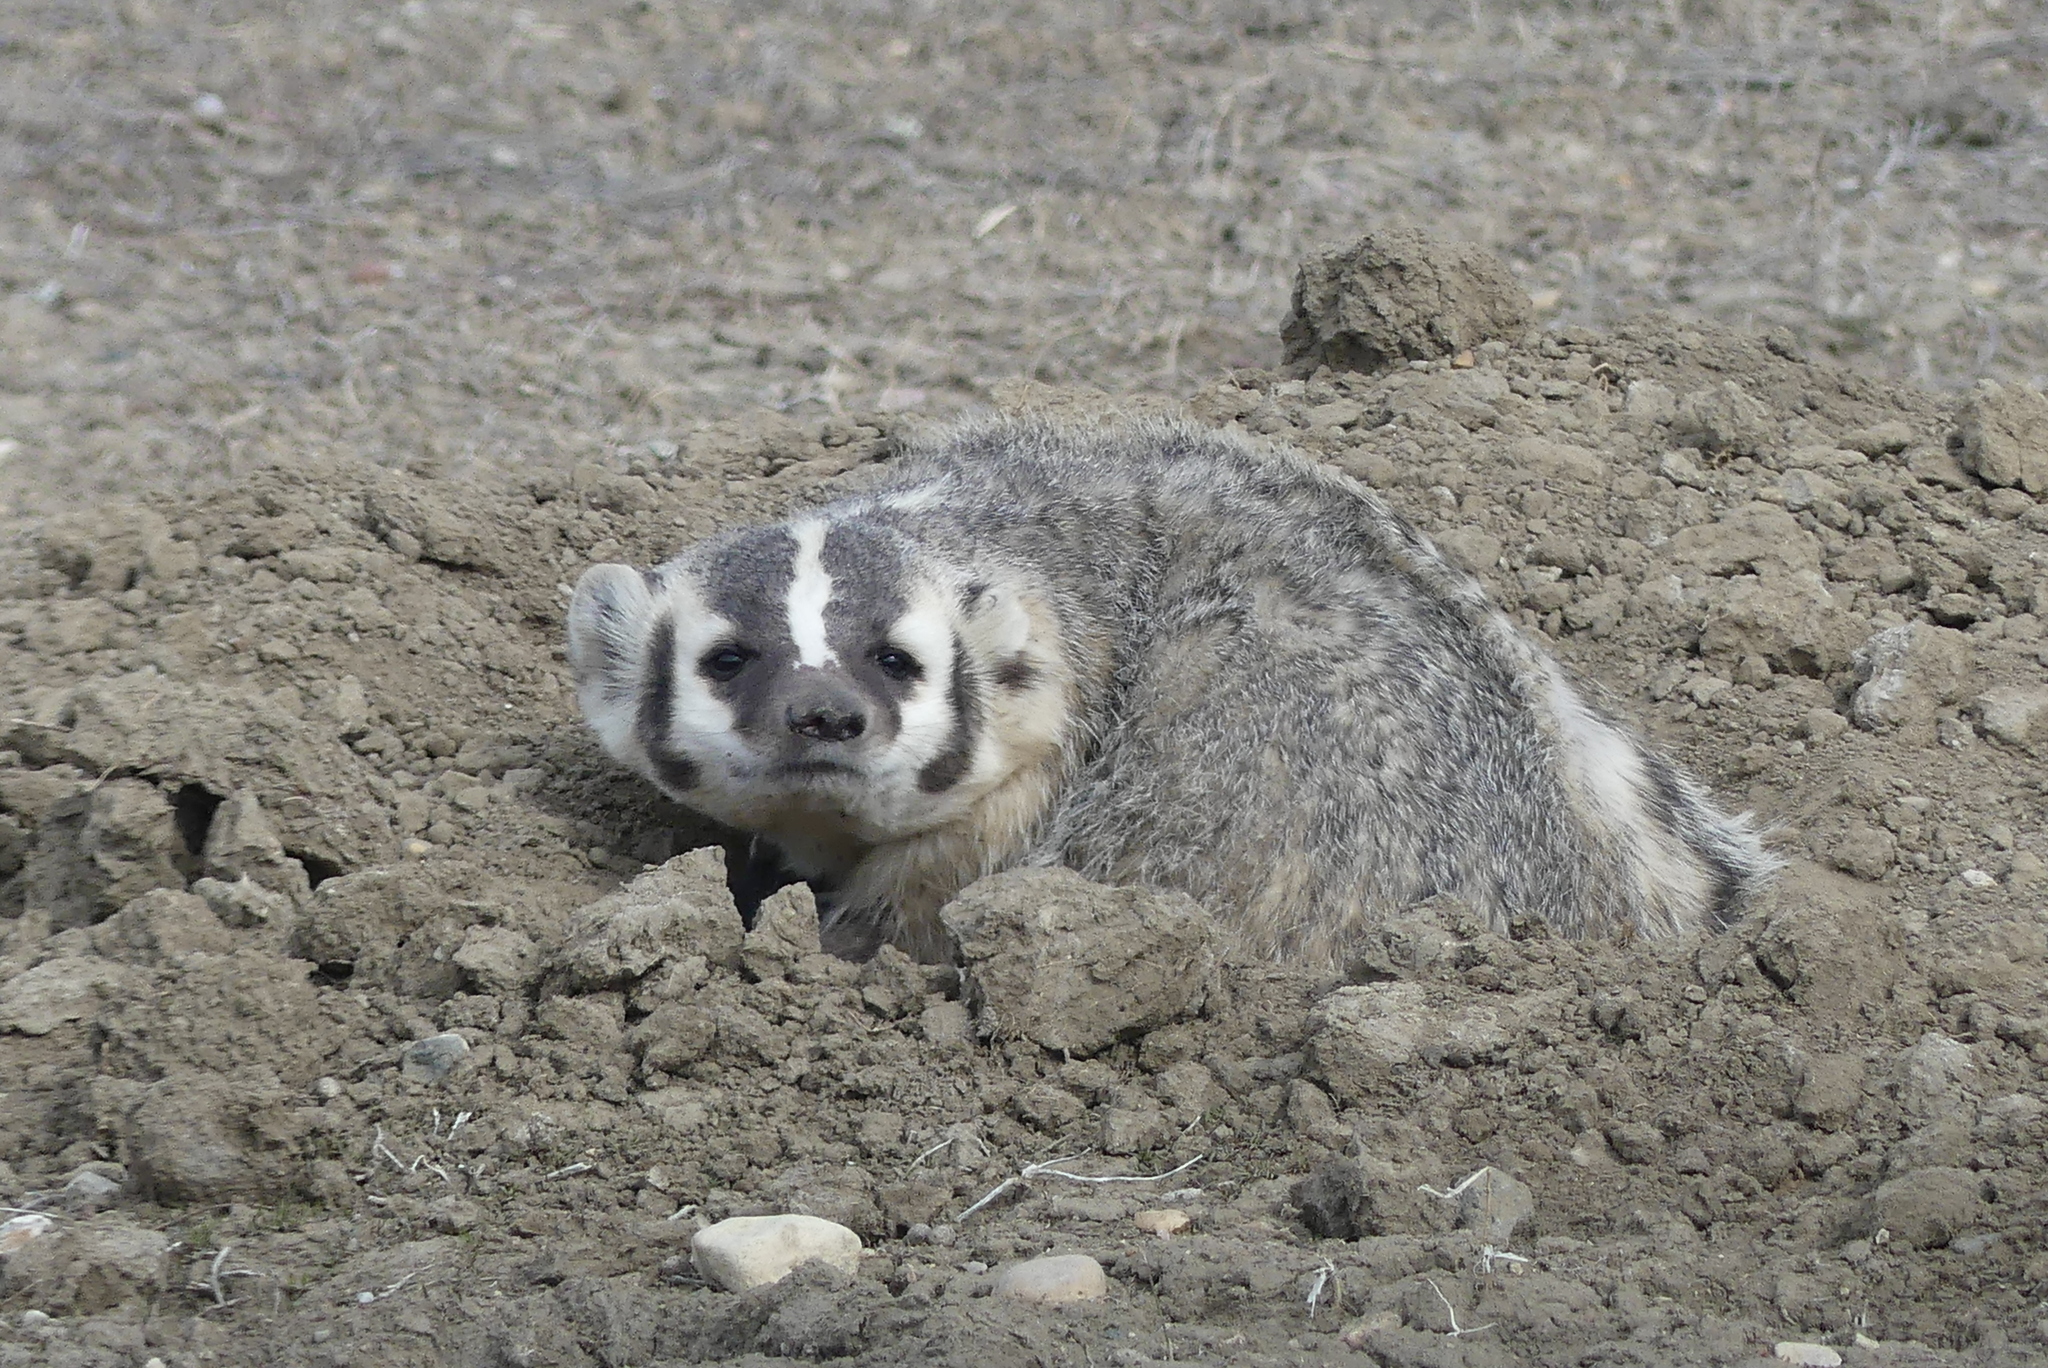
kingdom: Animalia
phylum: Chordata
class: Mammalia
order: Carnivora
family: Mustelidae
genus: Taxidea
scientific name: Taxidea taxus
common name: American badger
